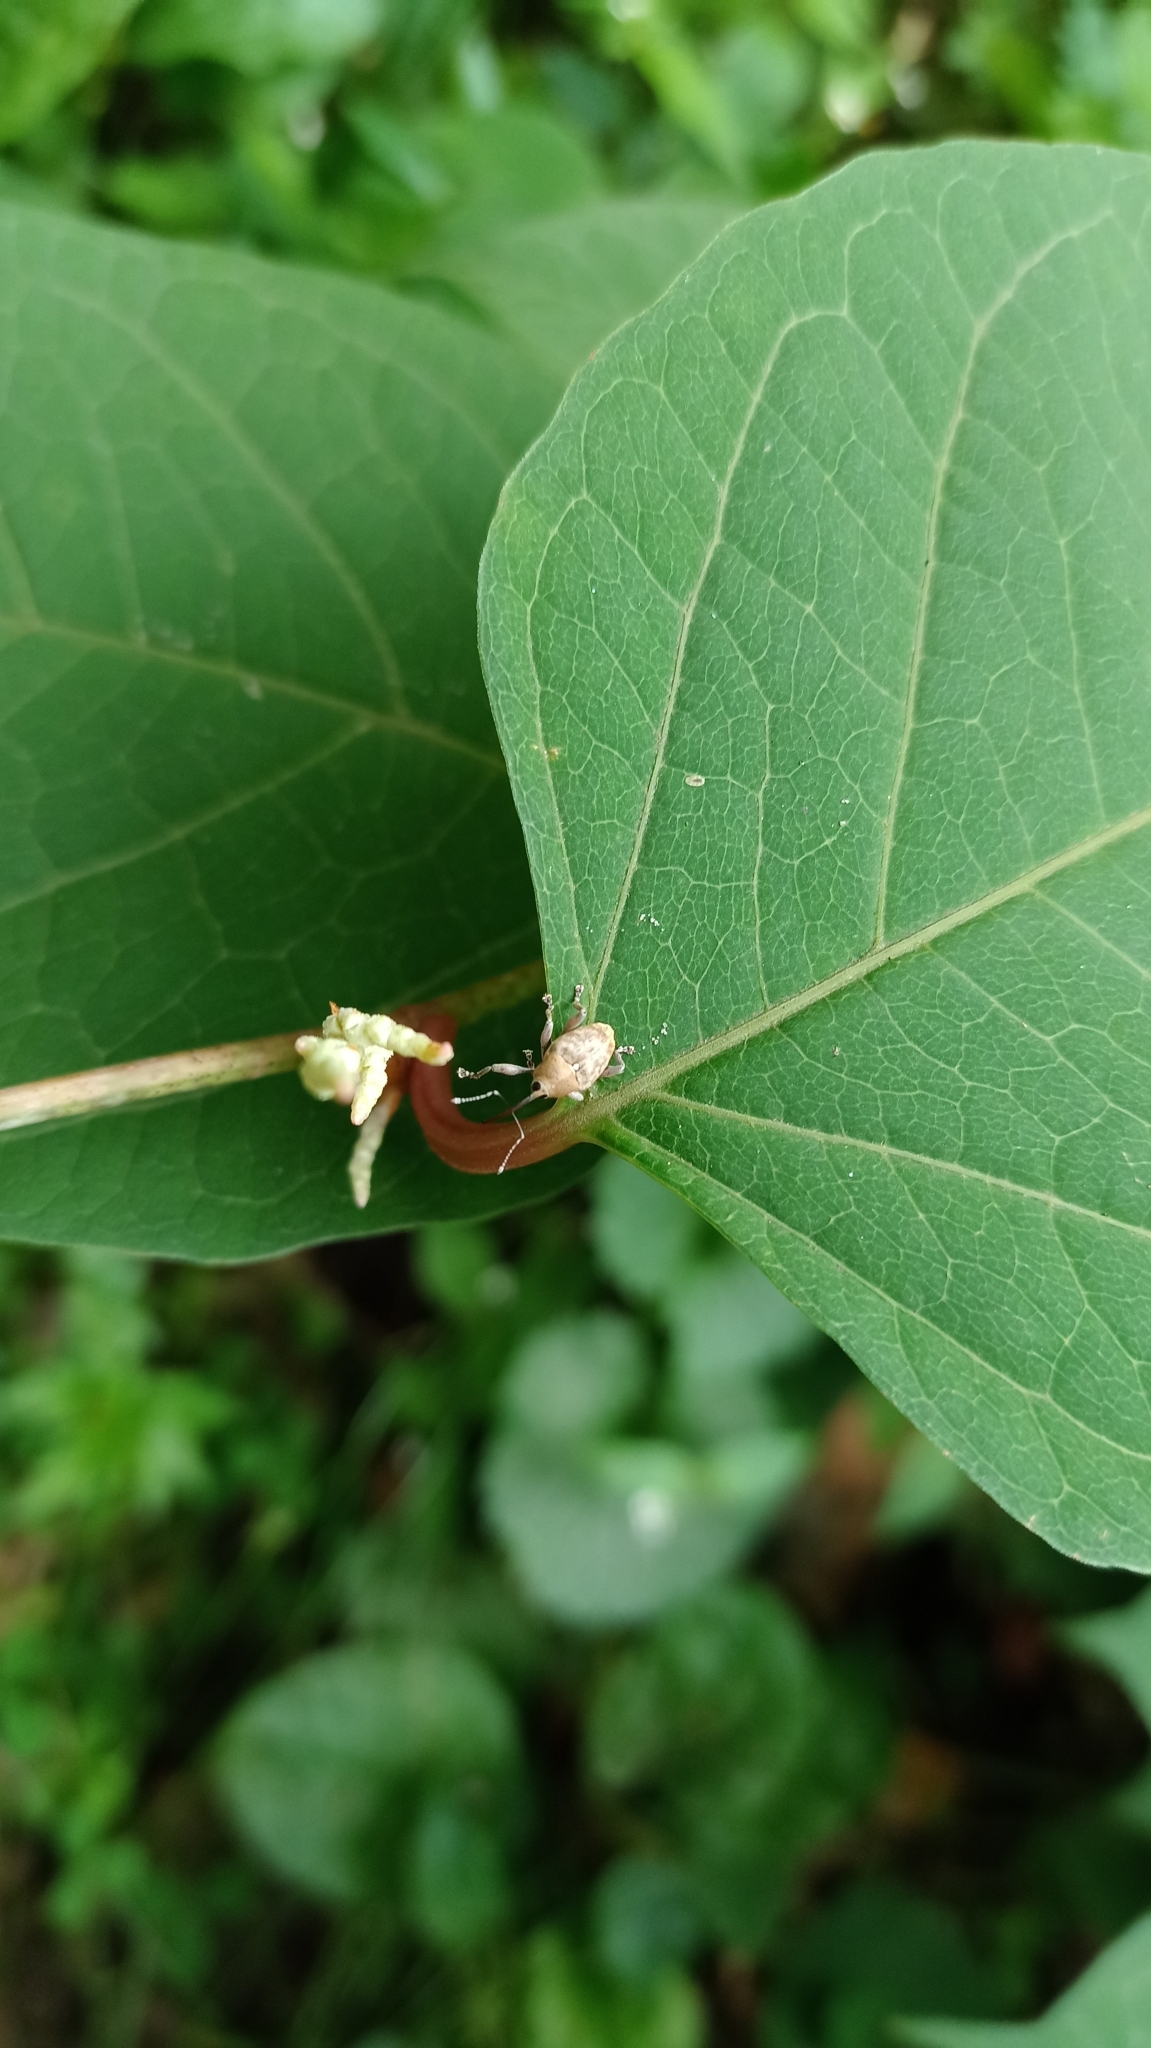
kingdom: Animalia
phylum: Arthropoda
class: Insecta
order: Coleoptera
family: Curculionidae
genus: Curculio
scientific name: Curculio nucum
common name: Nut weevil
